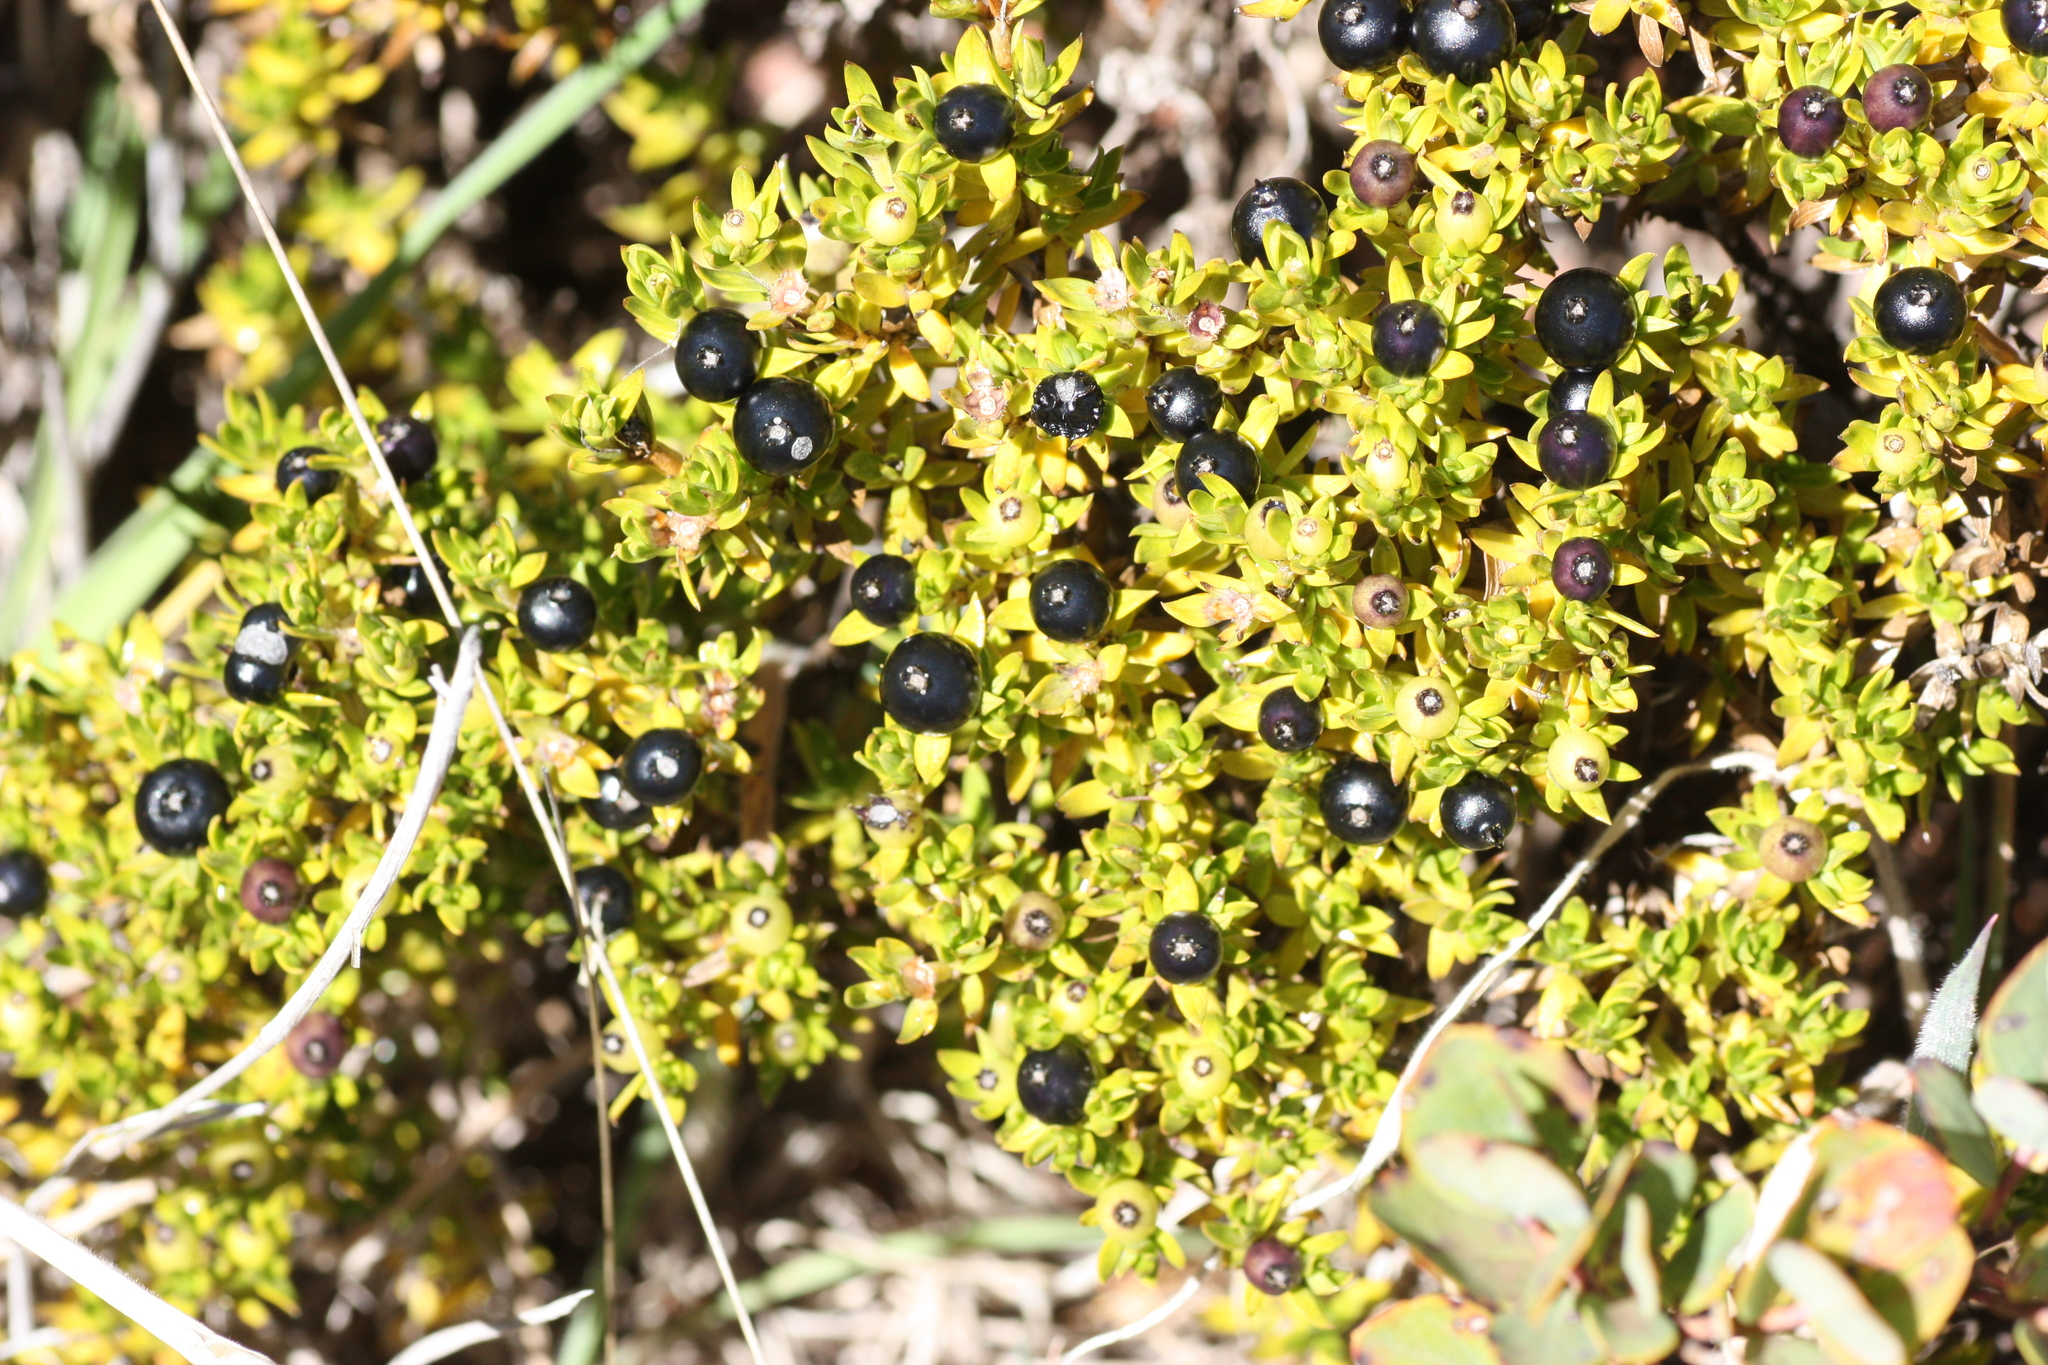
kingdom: Plantae
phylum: Tracheophyta
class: Magnoliopsida
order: Gentianales
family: Rubiaceae
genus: Coprosma
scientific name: Coprosma ernodeoides
